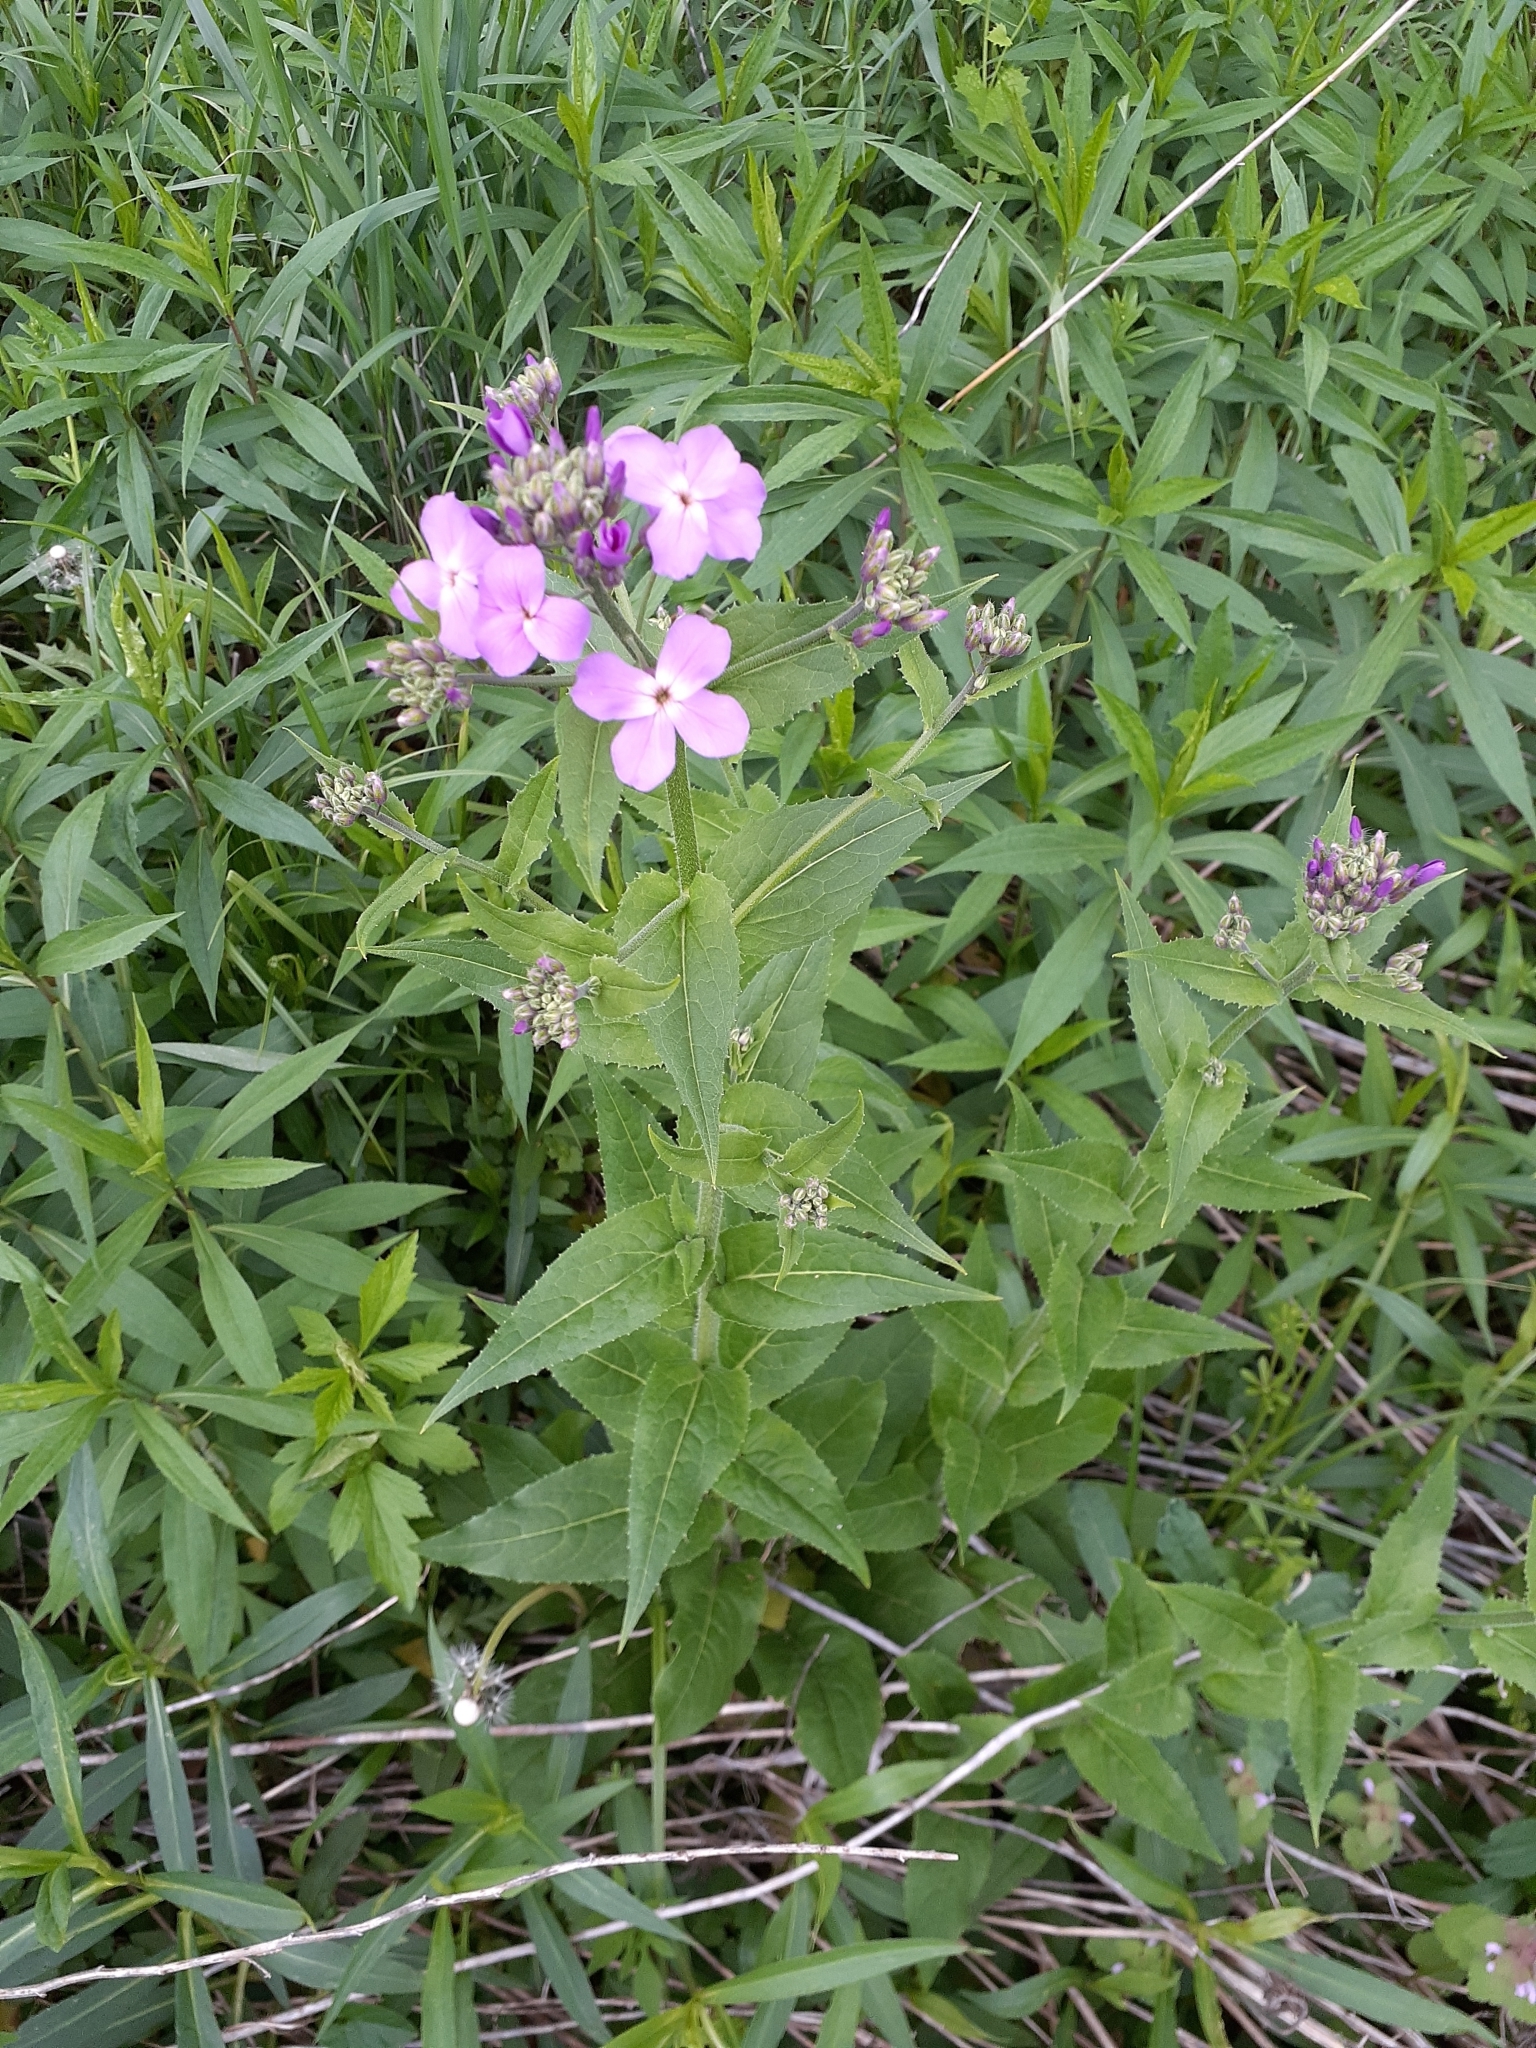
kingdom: Plantae
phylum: Tracheophyta
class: Magnoliopsida
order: Brassicales
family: Brassicaceae
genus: Hesperis
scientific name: Hesperis matronalis
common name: Dame's-violet
